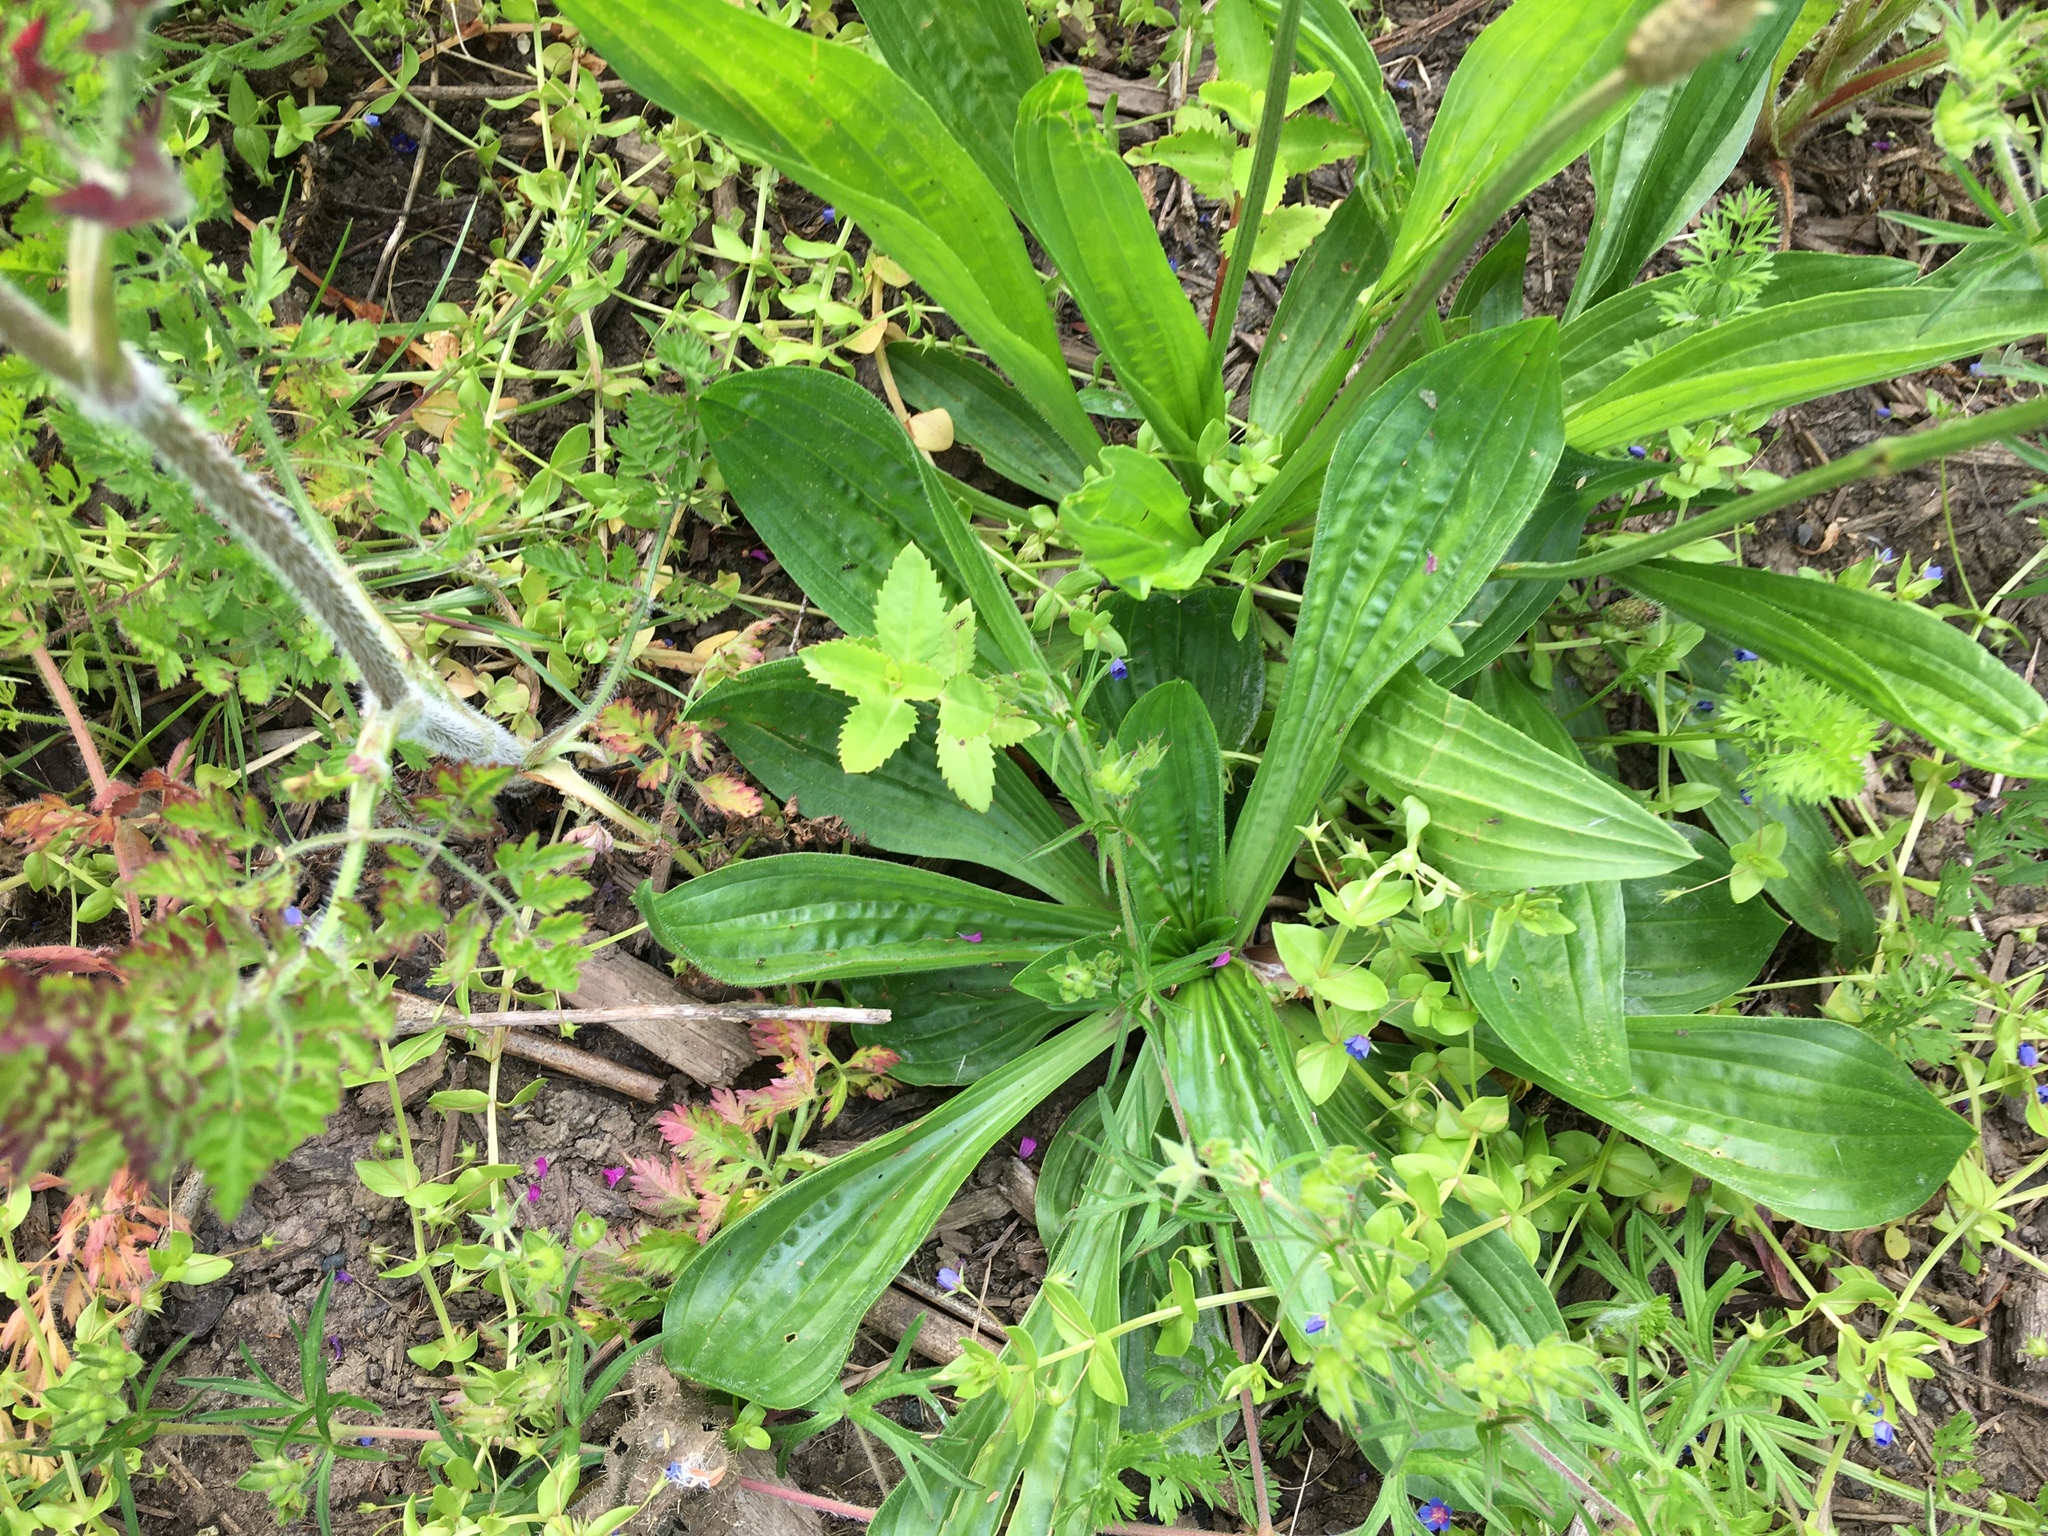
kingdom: Plantae
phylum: Tracheophyta
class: Magnoliopsida
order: Lamiales
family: Plantaginaceae
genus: Plantago
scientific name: Plantago lanceolata
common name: Ribwort plantain
